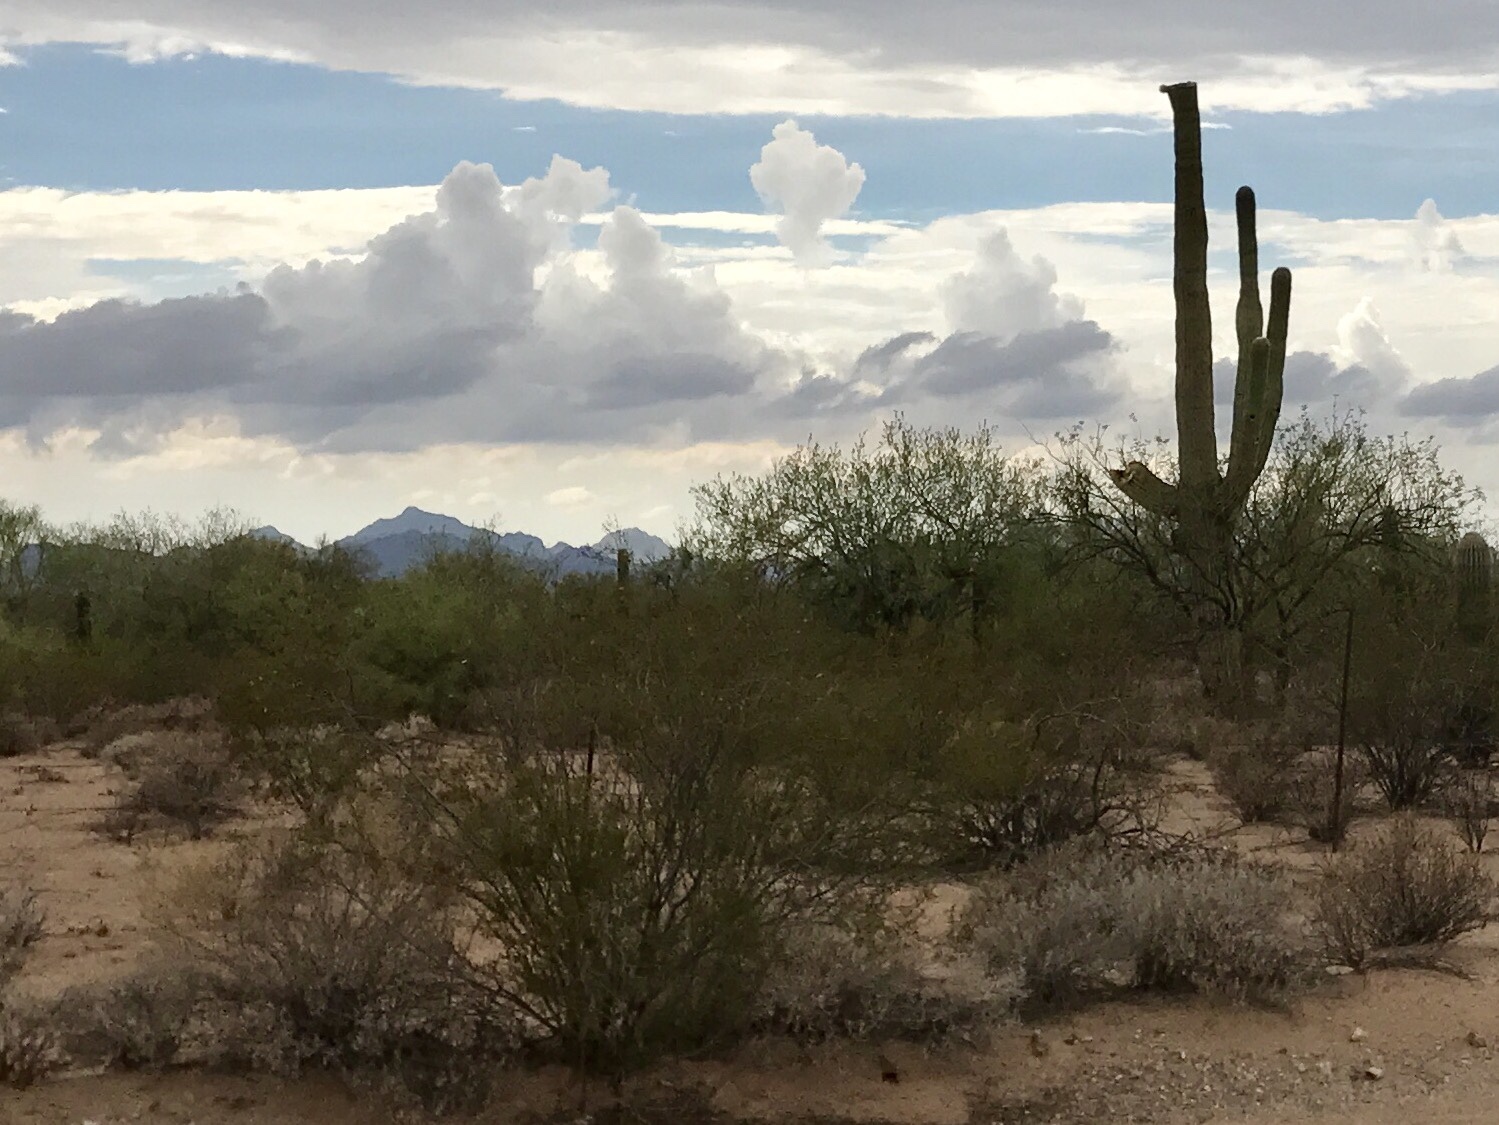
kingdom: Plantae
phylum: Tracheophyta
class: Magnoliopsida
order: Zygophyllales
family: Zygophyllaceae
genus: Larrea
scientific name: Larrea tridentata
